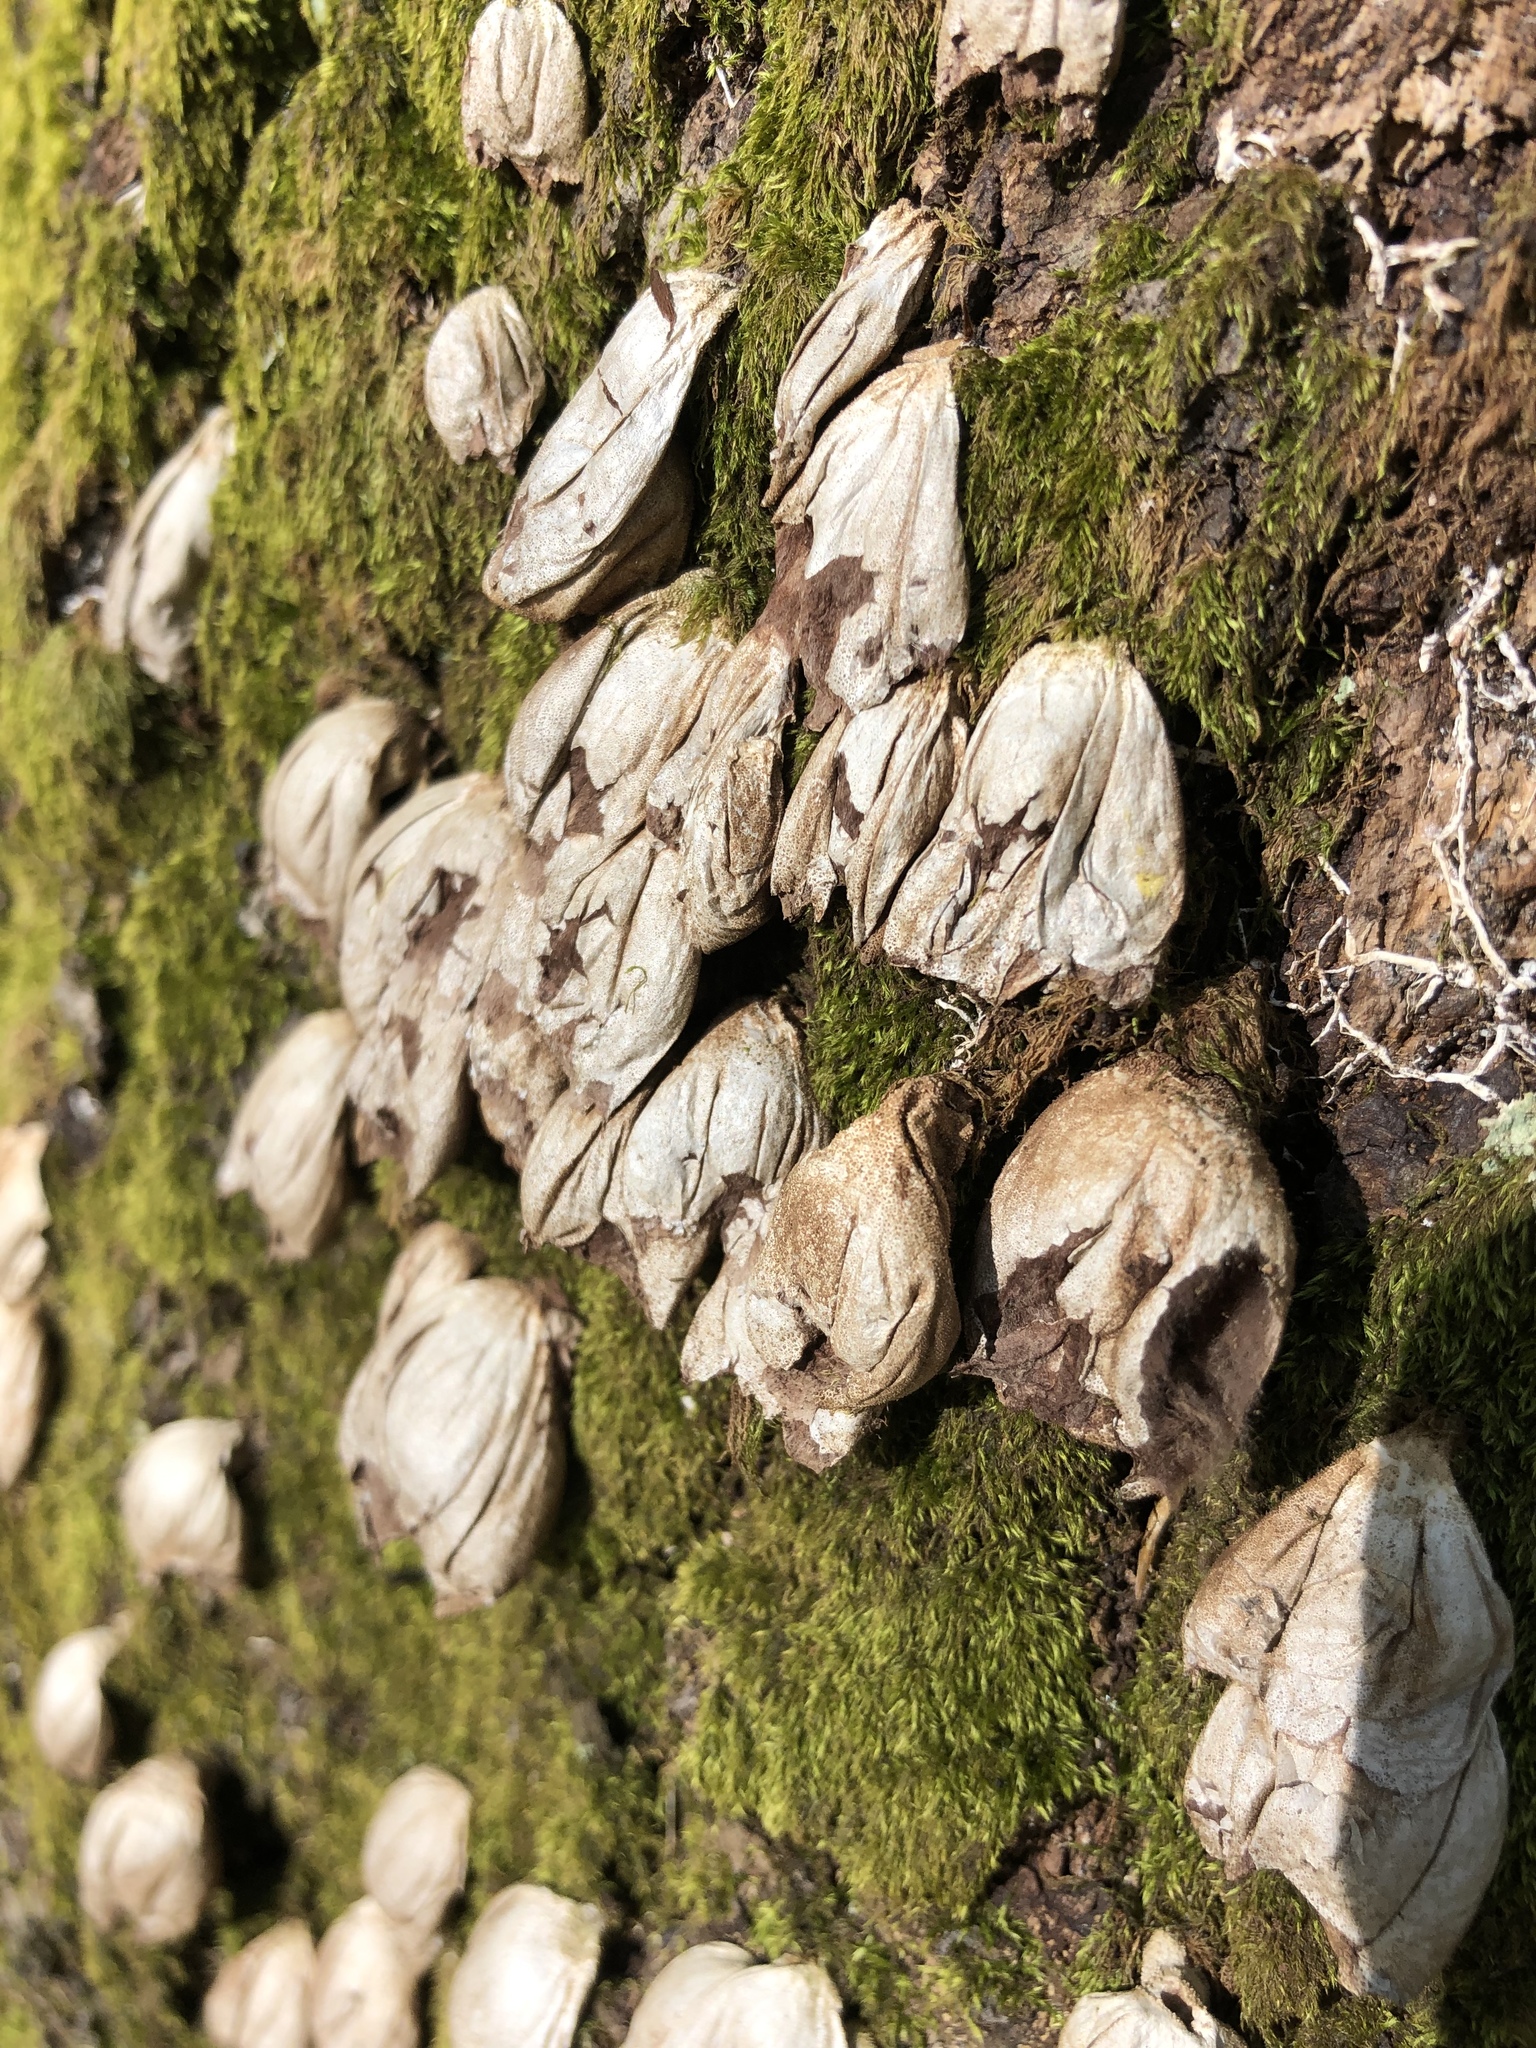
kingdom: Fungi
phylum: Basidiomycota
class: Agaricomycetes
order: Agaricales
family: Lycoperdaceae
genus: Apioperdon
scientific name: Apioperdon pyriforme
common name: Pear-shaped puffball
